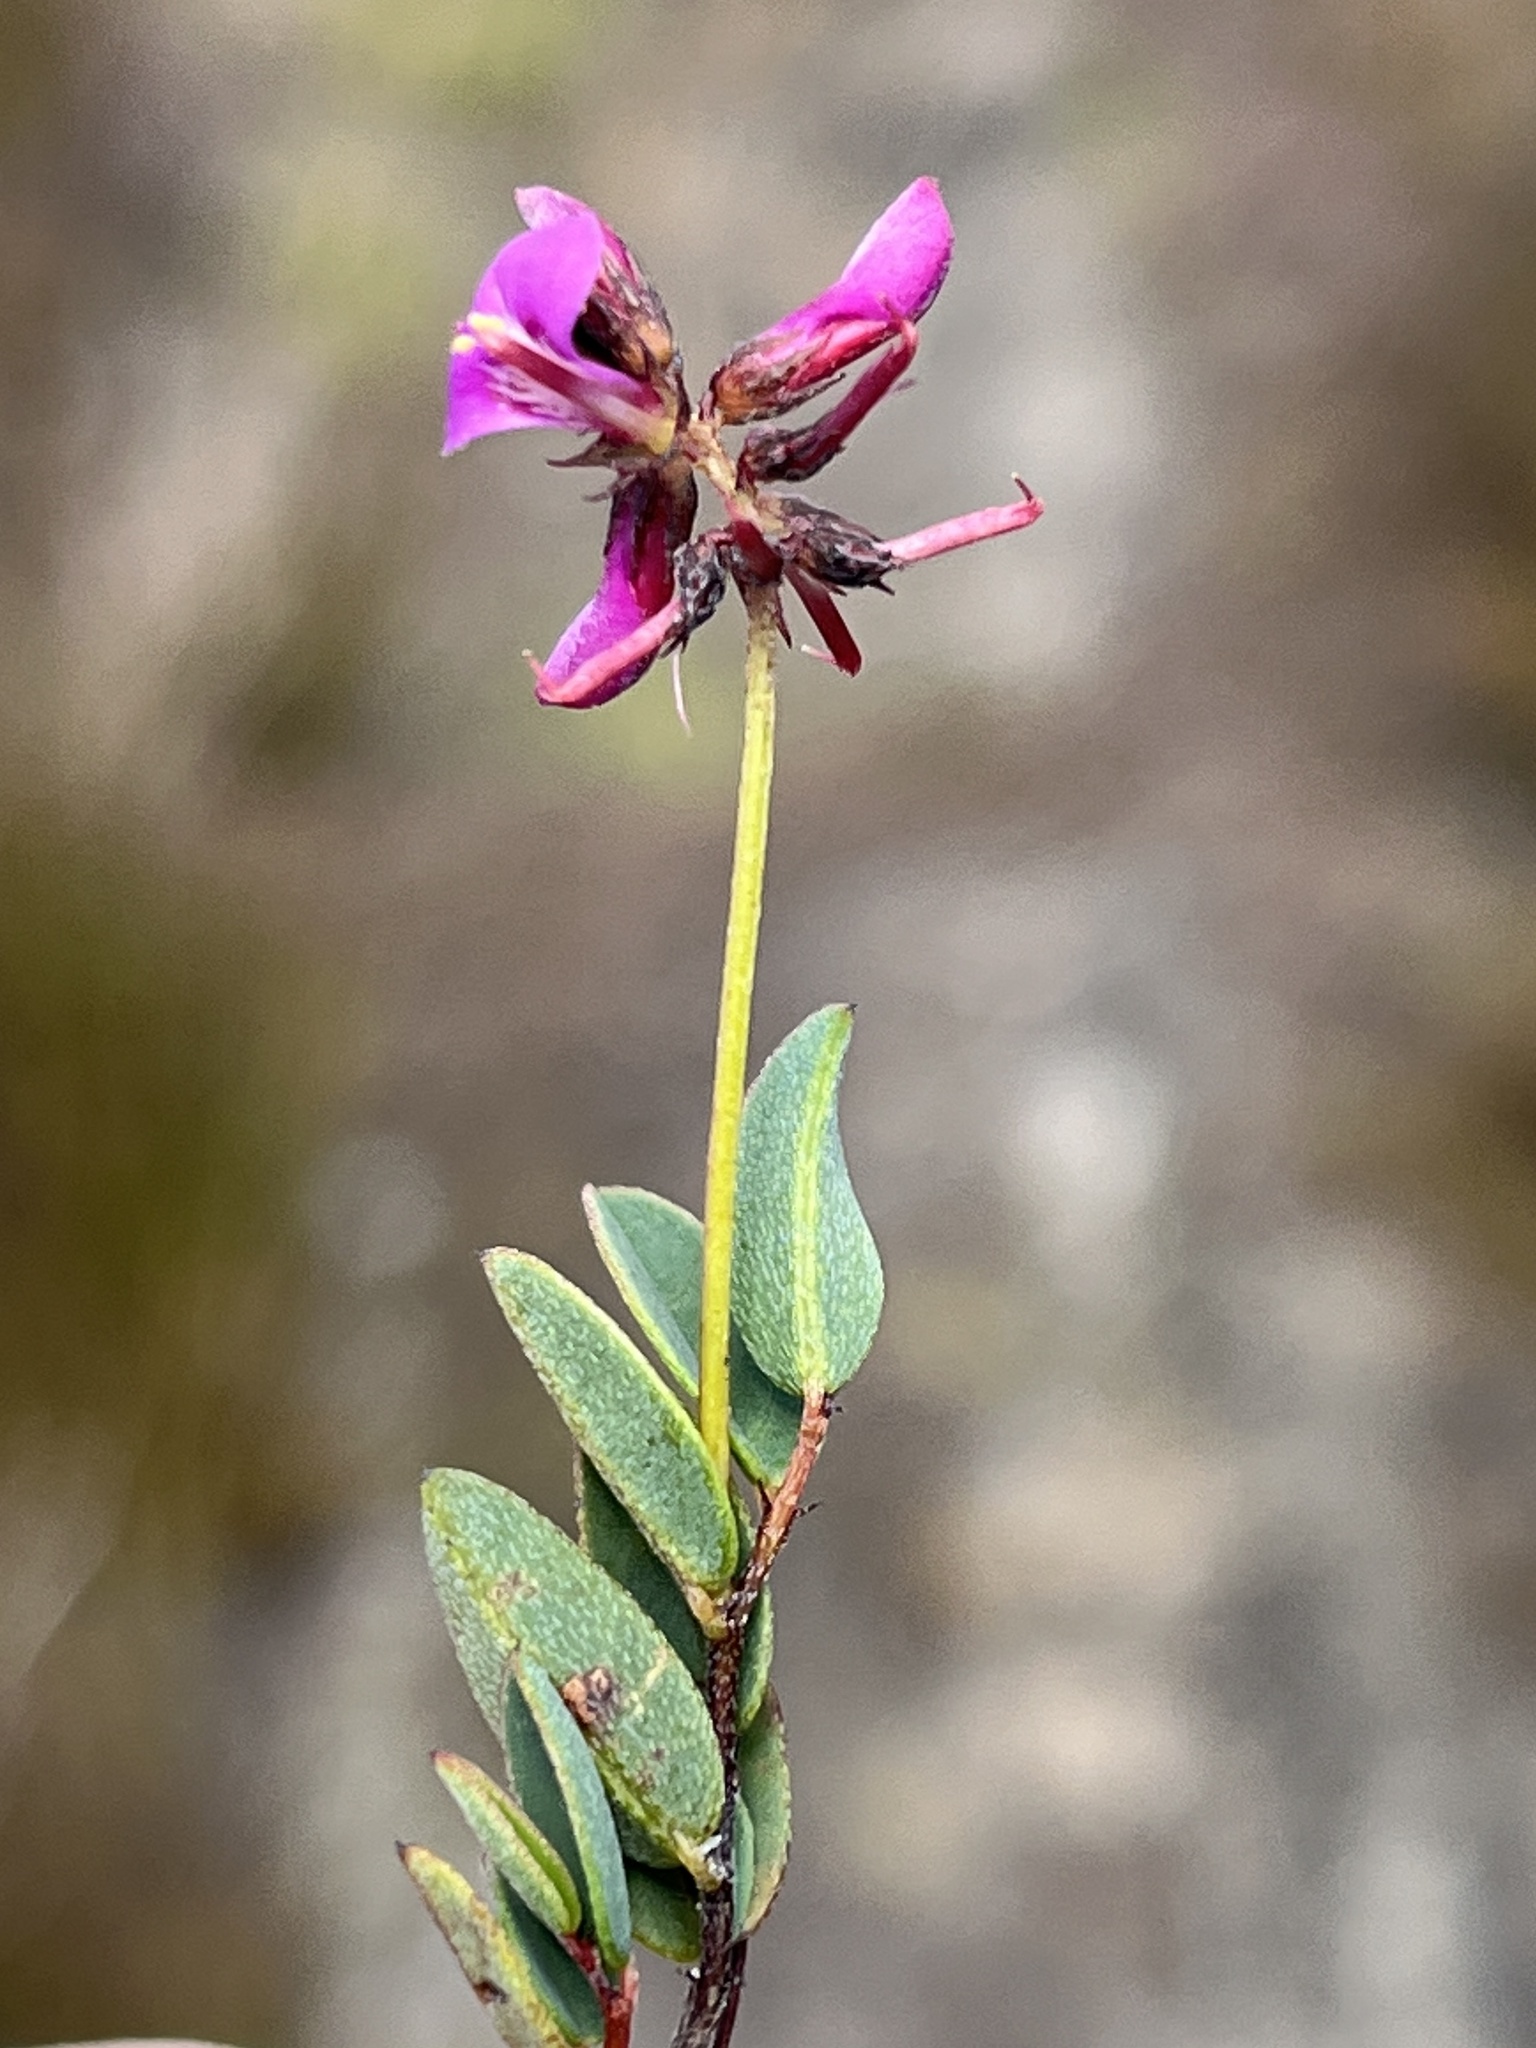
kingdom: Plantae
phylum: Tracheophyta
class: Magnoliopsida
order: Fabales
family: Fabaceae
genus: Indigofera
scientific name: Indigofera ovata
